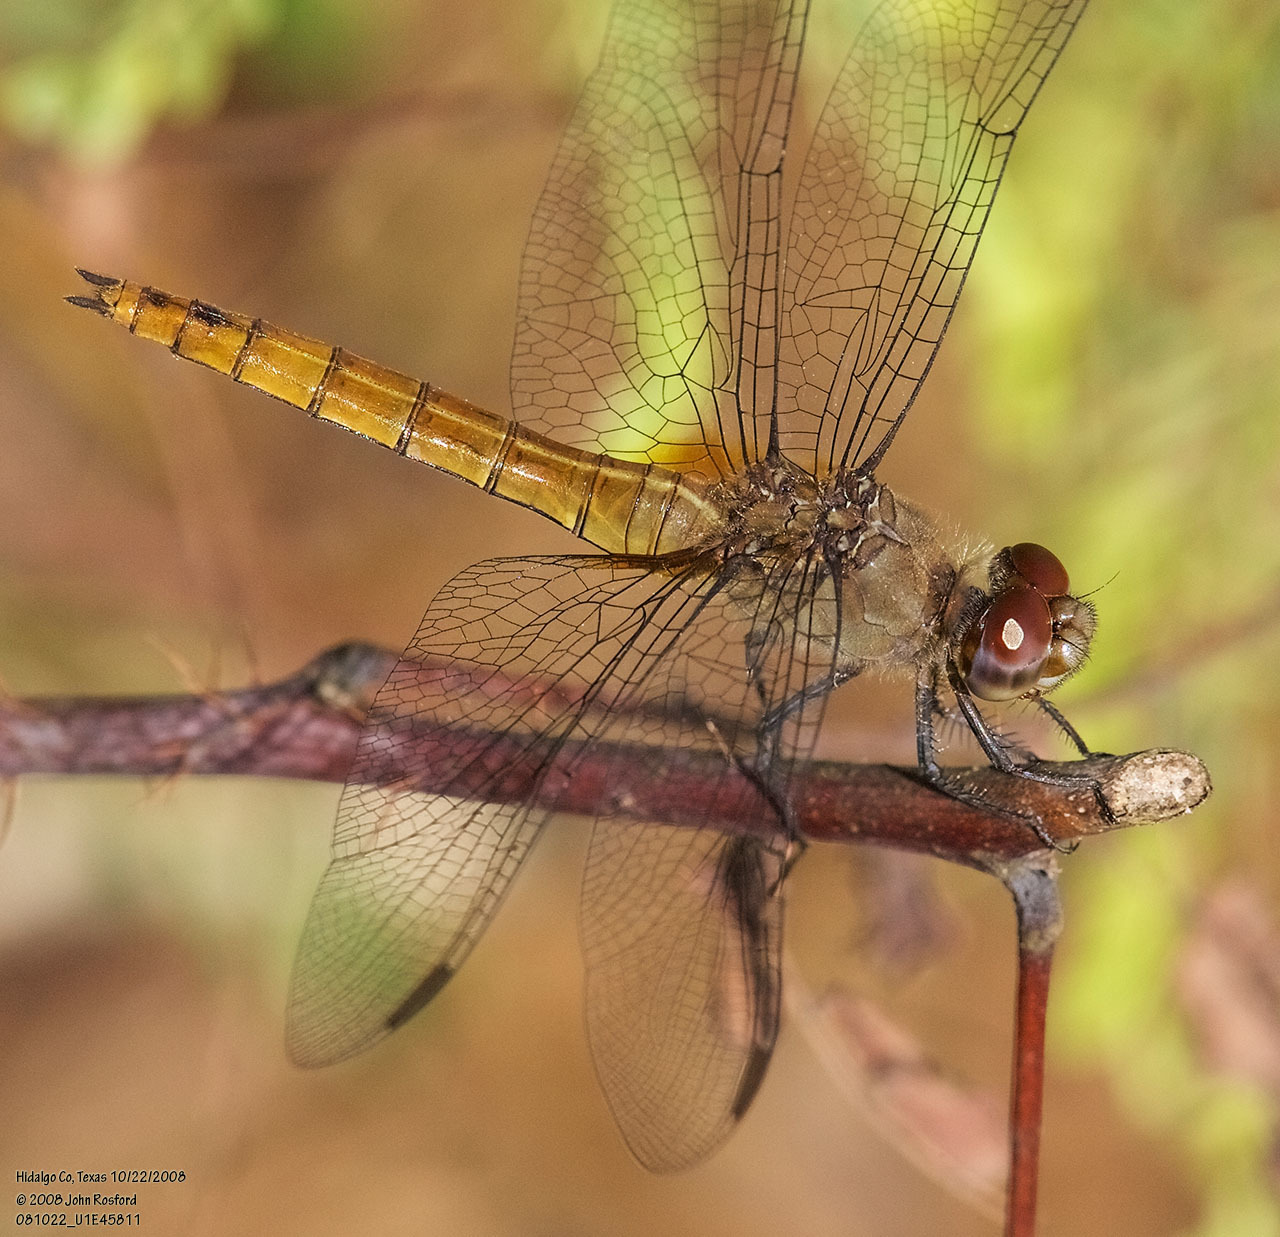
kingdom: Animalia
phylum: Arthropoda
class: Insecta
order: Odonata
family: Libellulidae
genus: Brachymesia
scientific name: Brachymesia furcata
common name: Red-taled pennant
